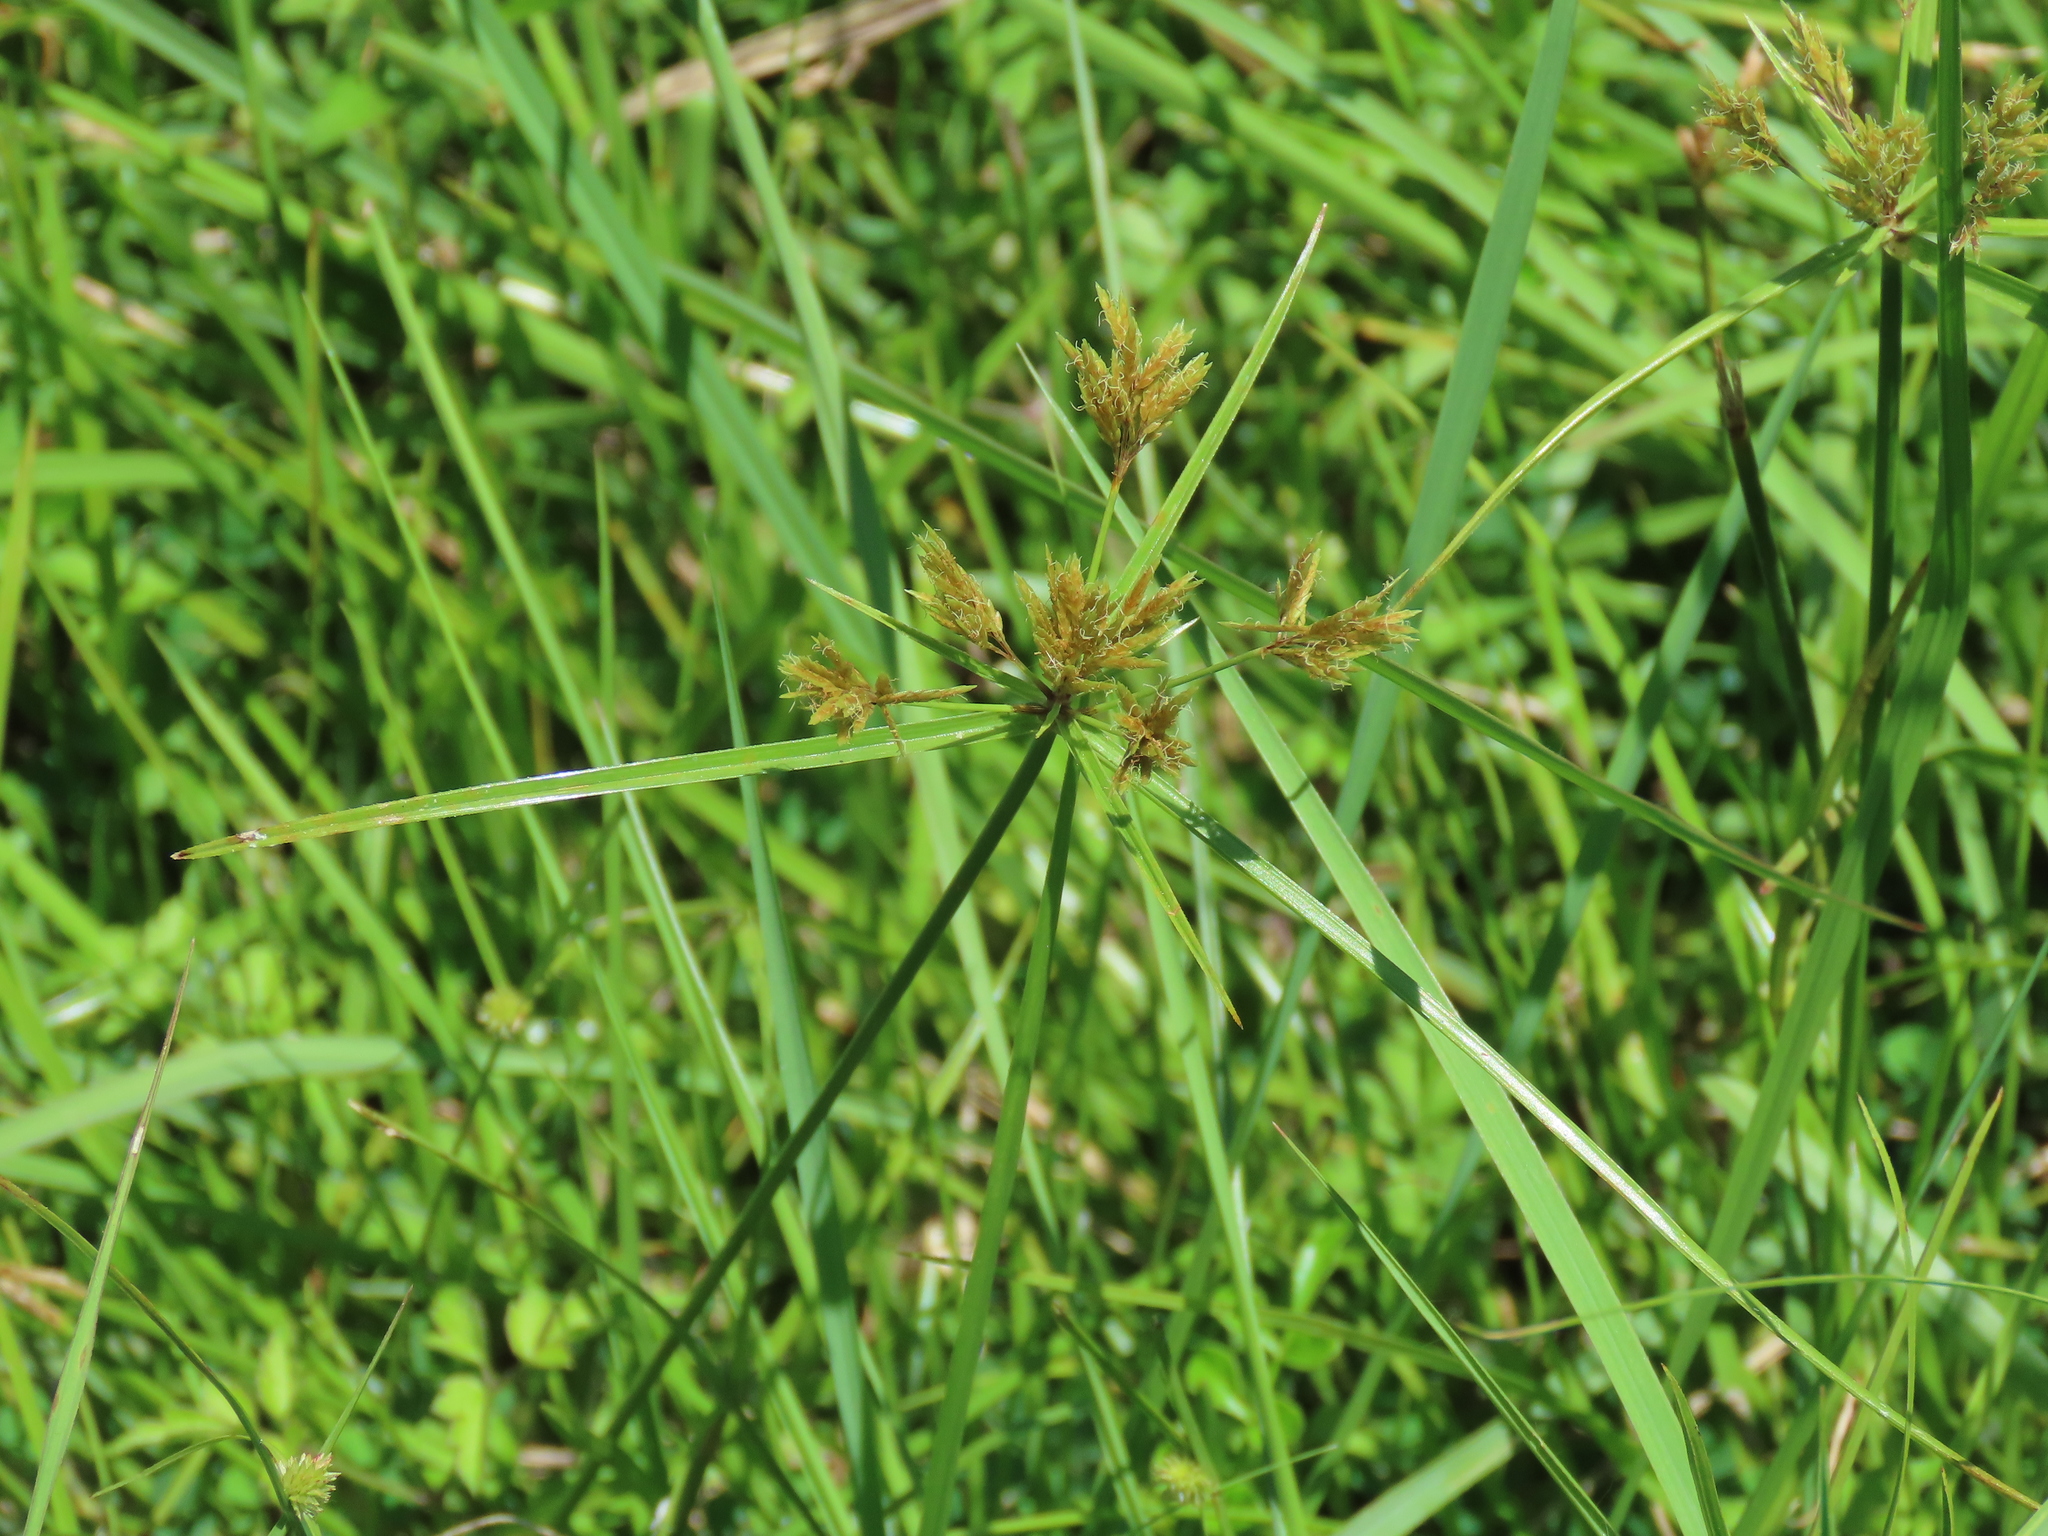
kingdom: Plantae
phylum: Tracheophyta
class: Liliopsida
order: Poales
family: Cyperaceae
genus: Cyperus
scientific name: Cyperus polystachyos
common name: Bunchy flat sedge
